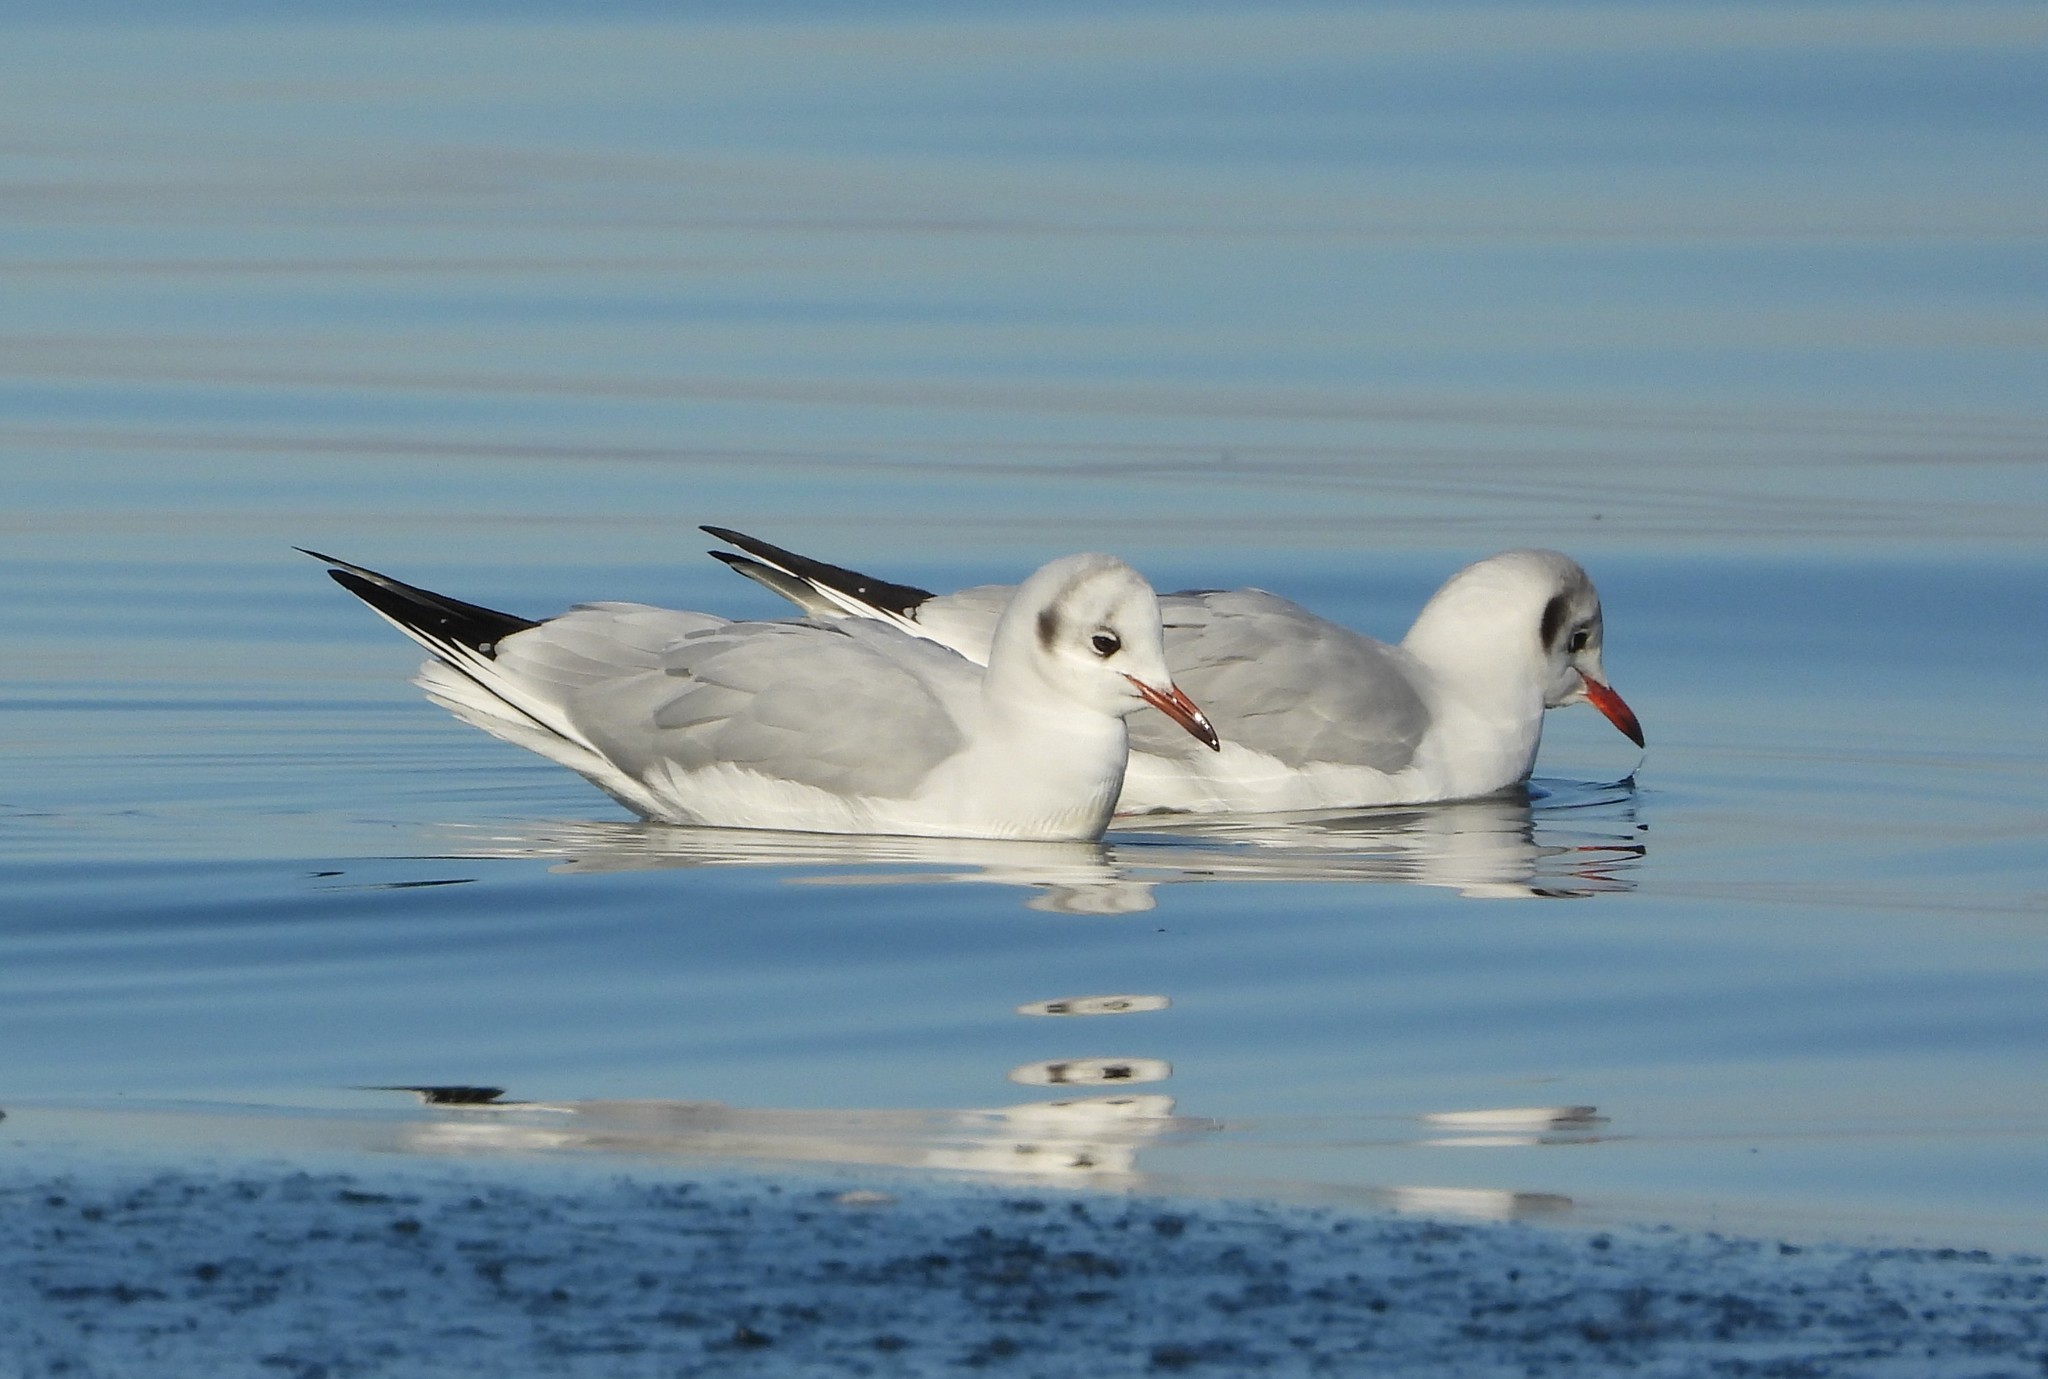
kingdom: Animalia
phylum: Chordata
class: Aves
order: Charadriiformes
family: Laridae
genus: Chroicocephalus
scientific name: Chroicocephalus ridibundus
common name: Black-headed gull
